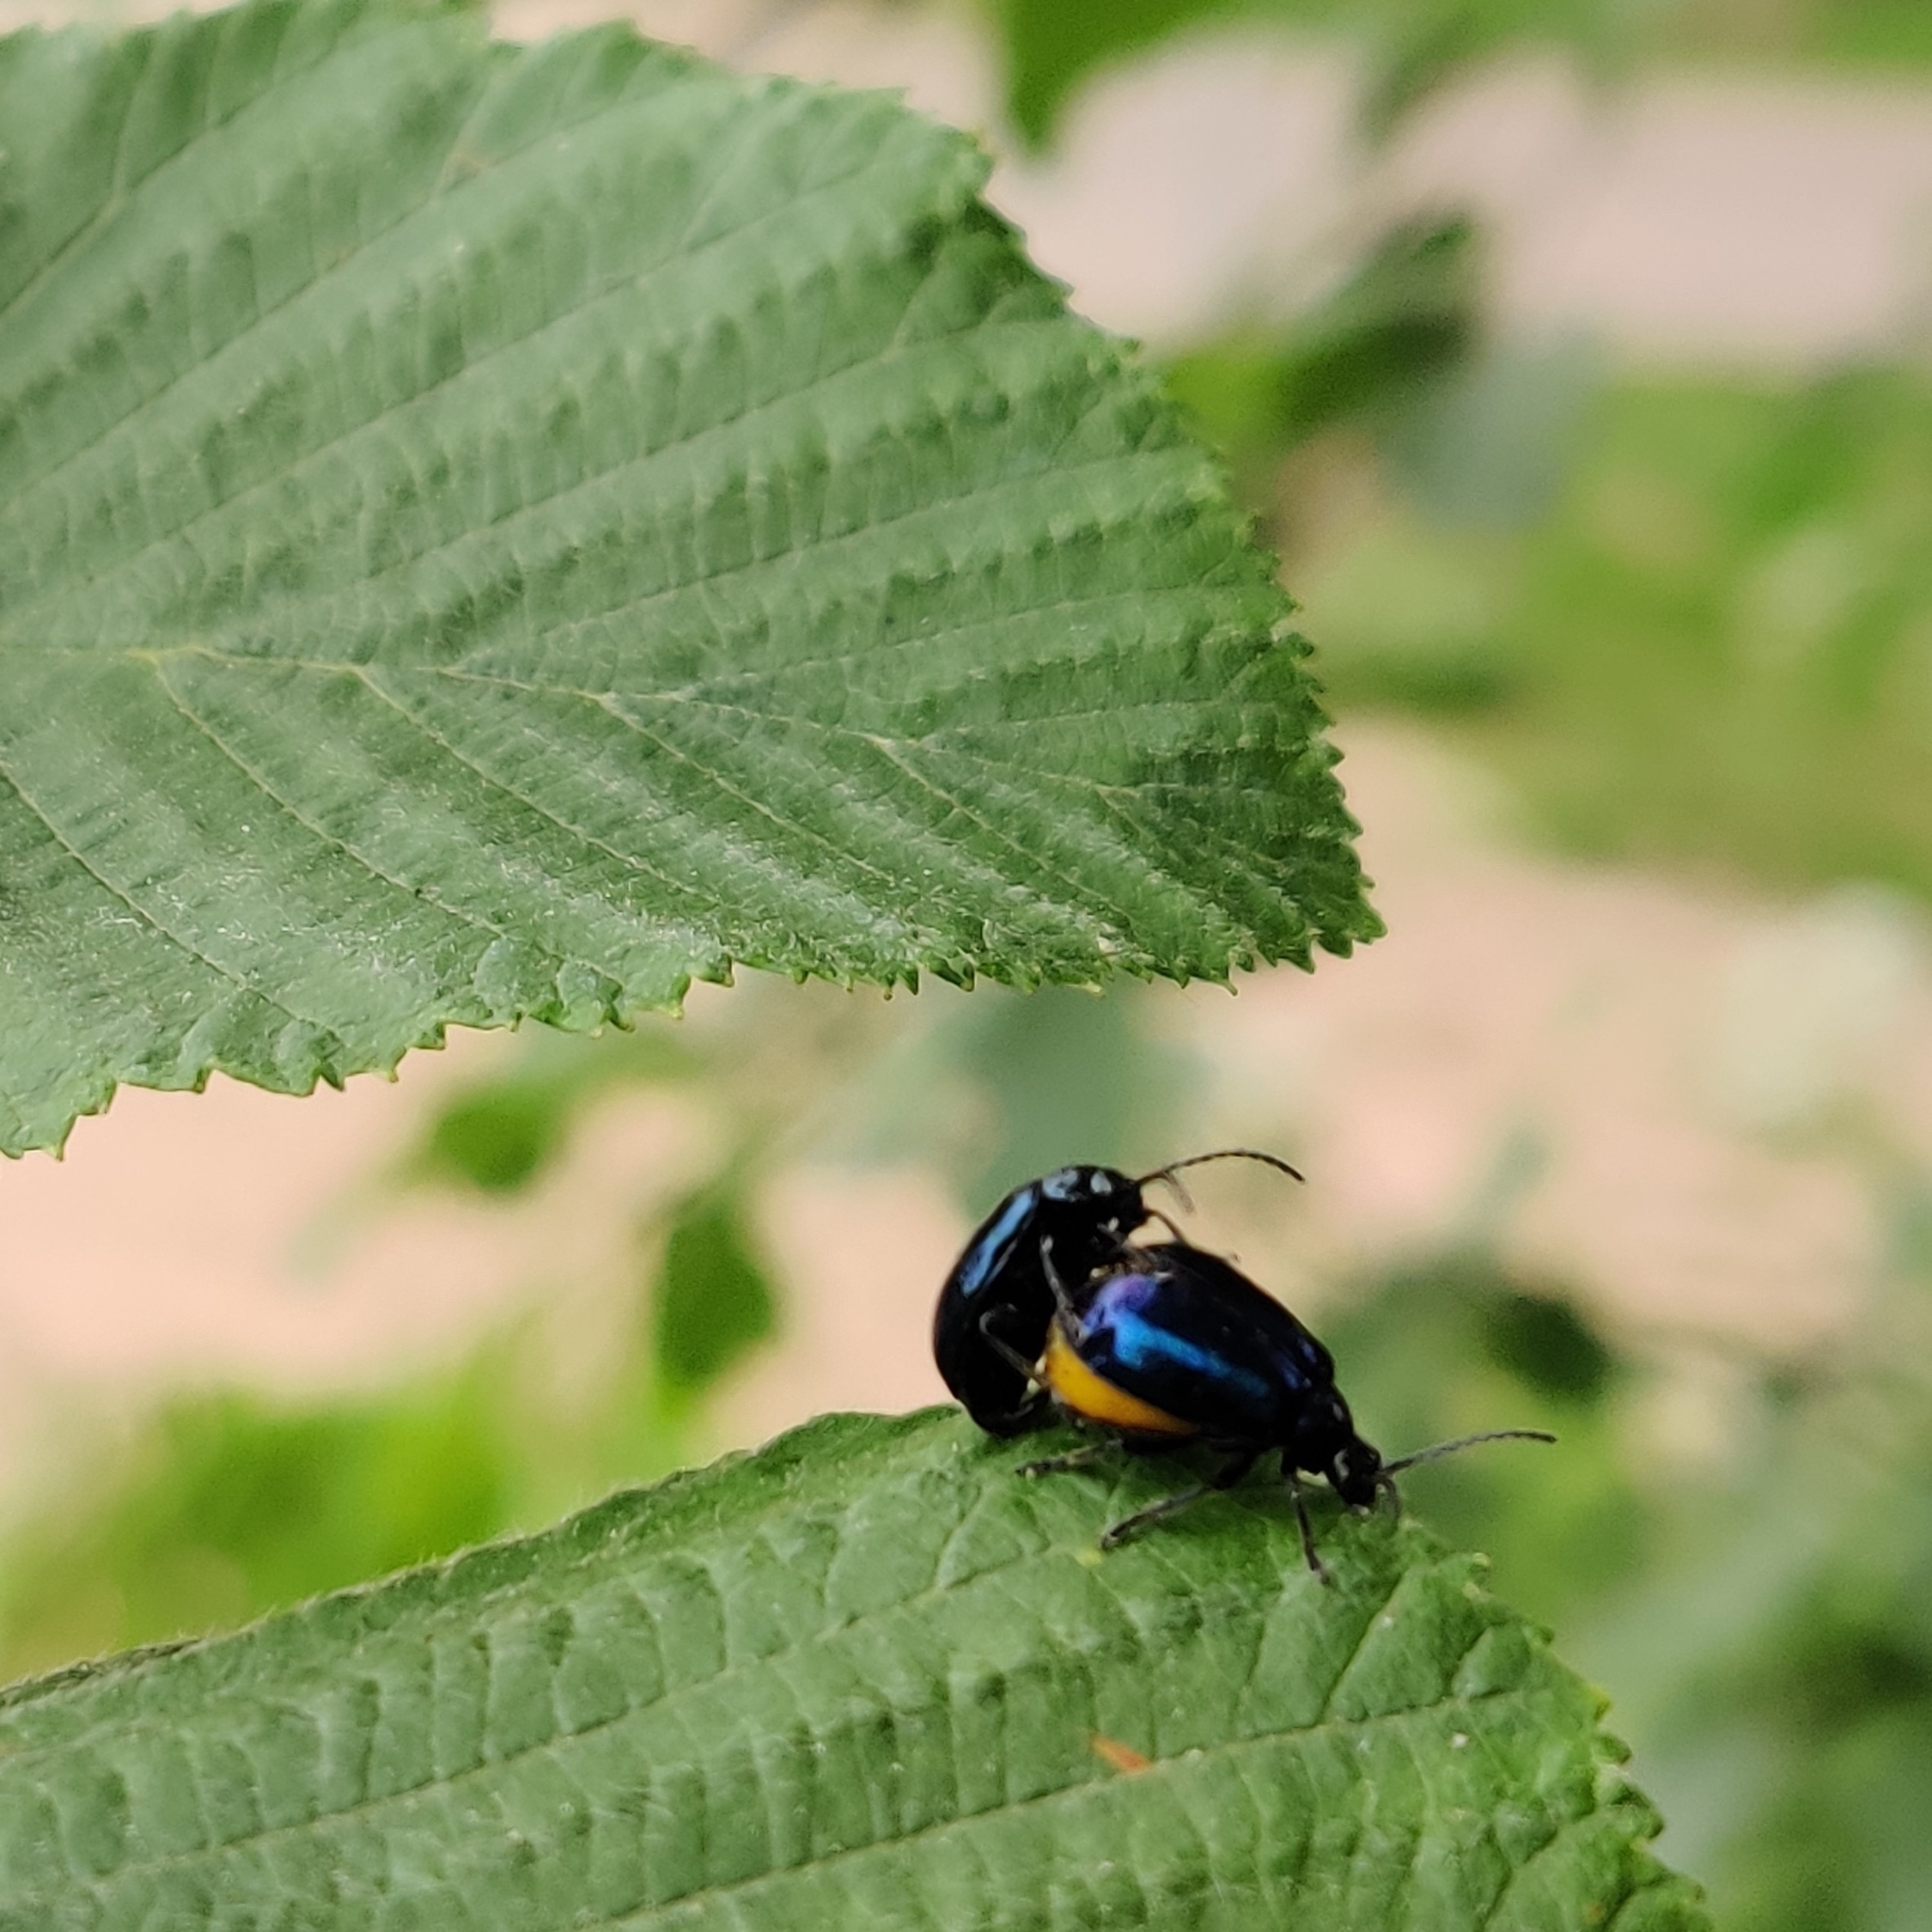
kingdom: Animalia
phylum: Arthropoda
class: Insecta
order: Coleoptera
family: Chrysomelidae
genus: Agelastica
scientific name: Agelastica alni
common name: Alder leaf beetle
